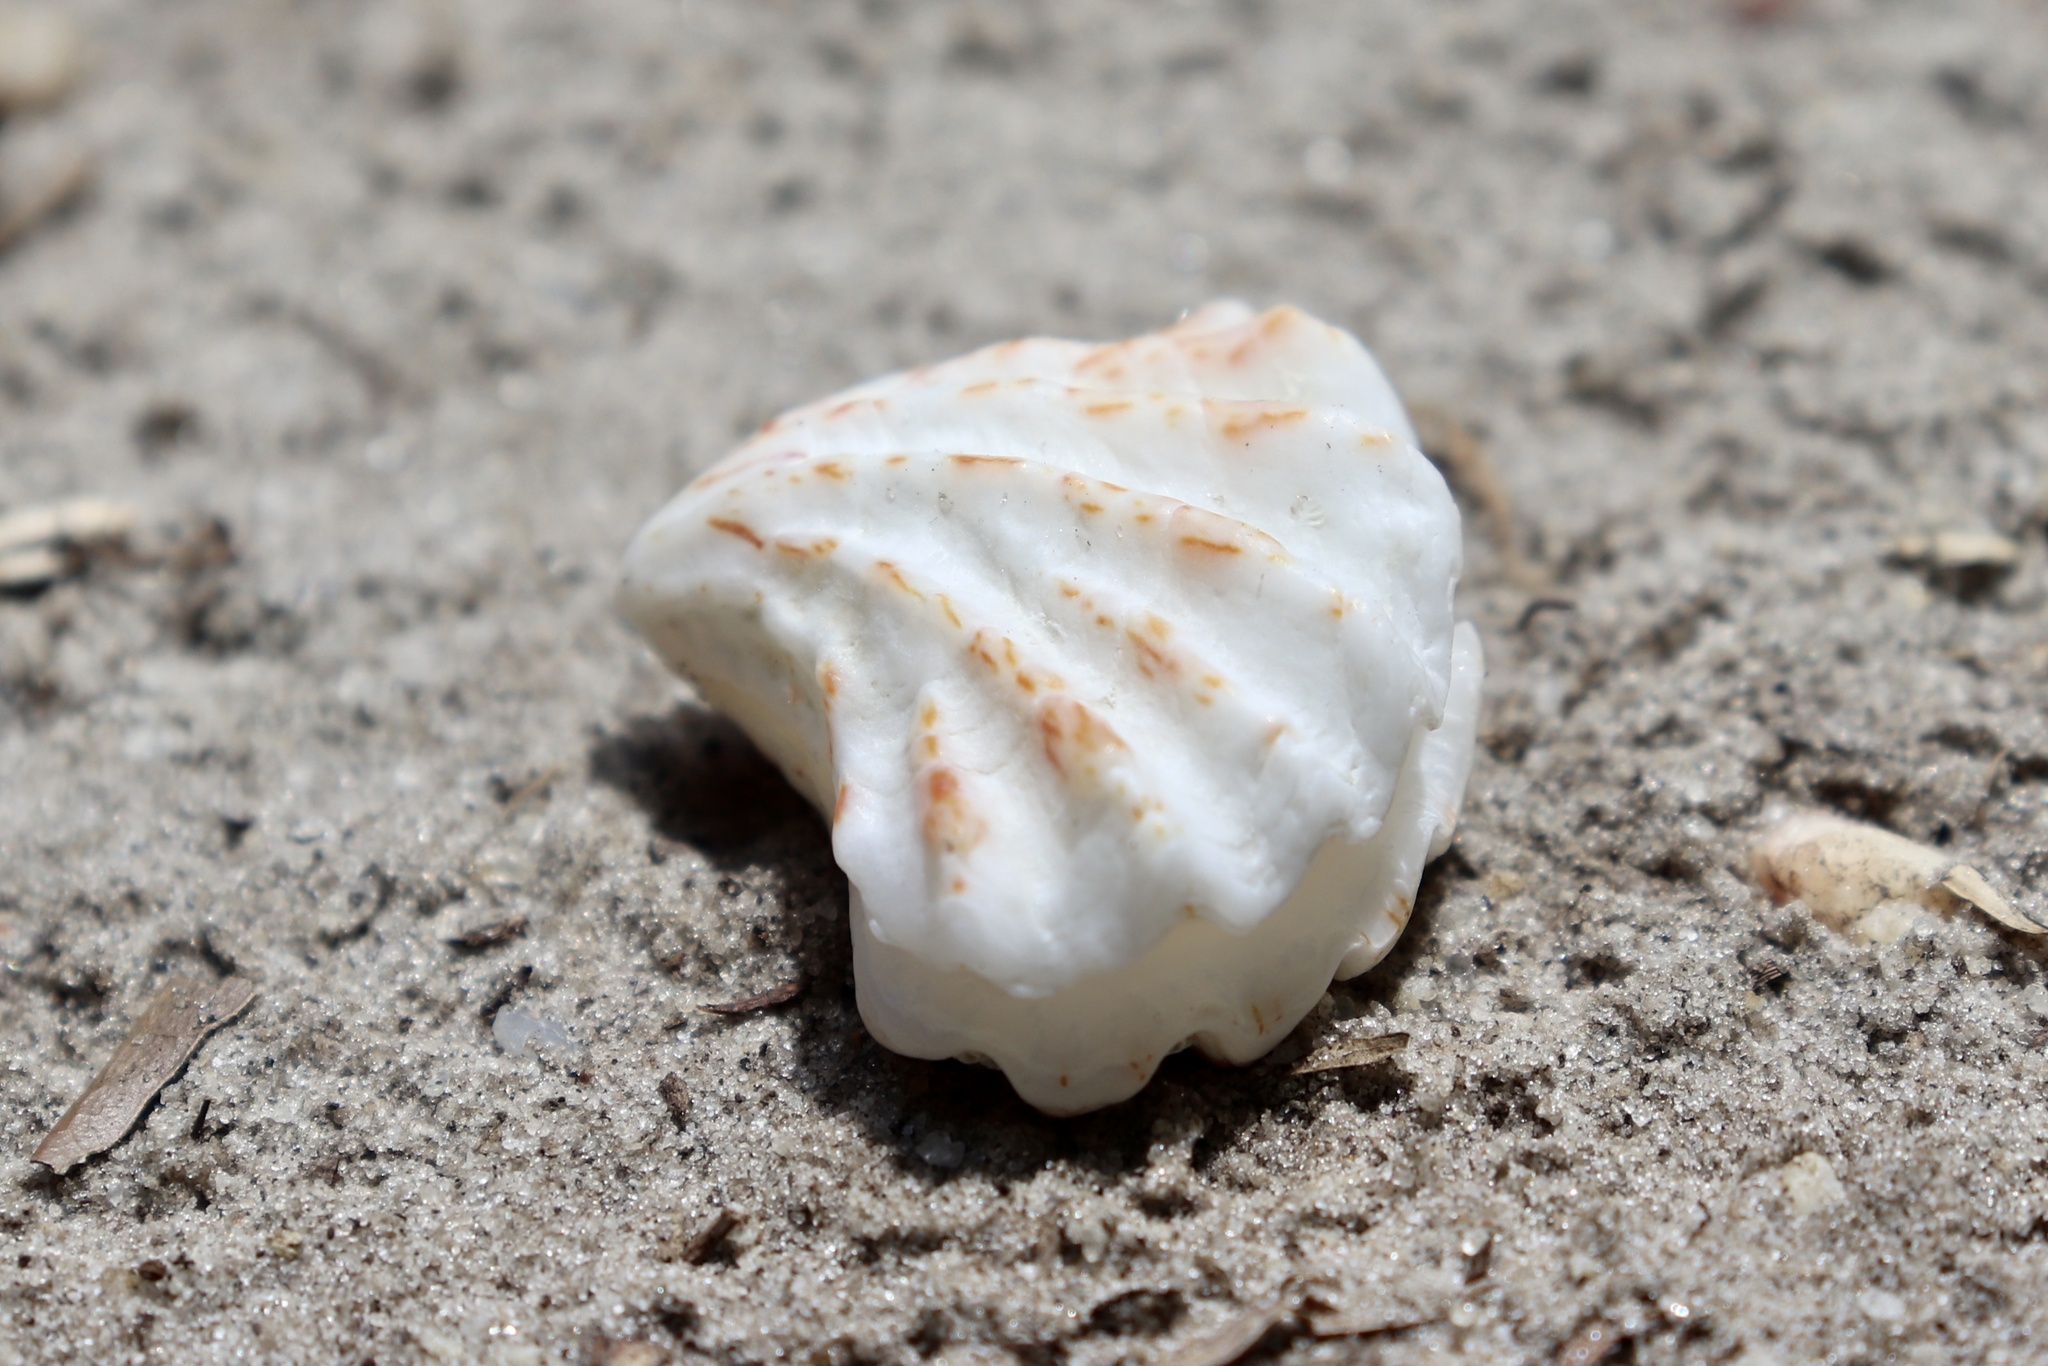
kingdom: Animalia
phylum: Mollusca
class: Bivalvia
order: Pectinida
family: Plicatulidae
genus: Plicatula
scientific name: Plicatula gibbosa
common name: Atlantic kitten's paw
